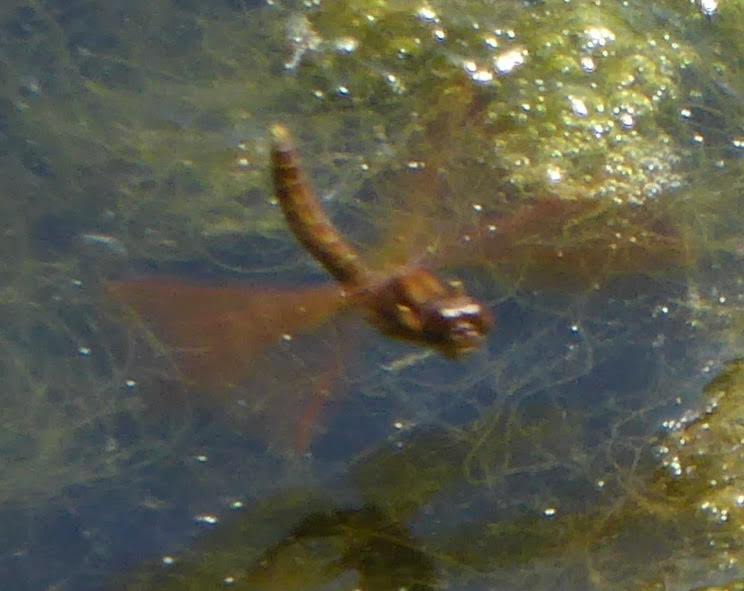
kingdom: Animalia
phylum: Arthropoda
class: Insecta
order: Odonata
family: Libellulidae
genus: Perithemis
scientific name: Perithemis tenera
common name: Eastern amberwing
